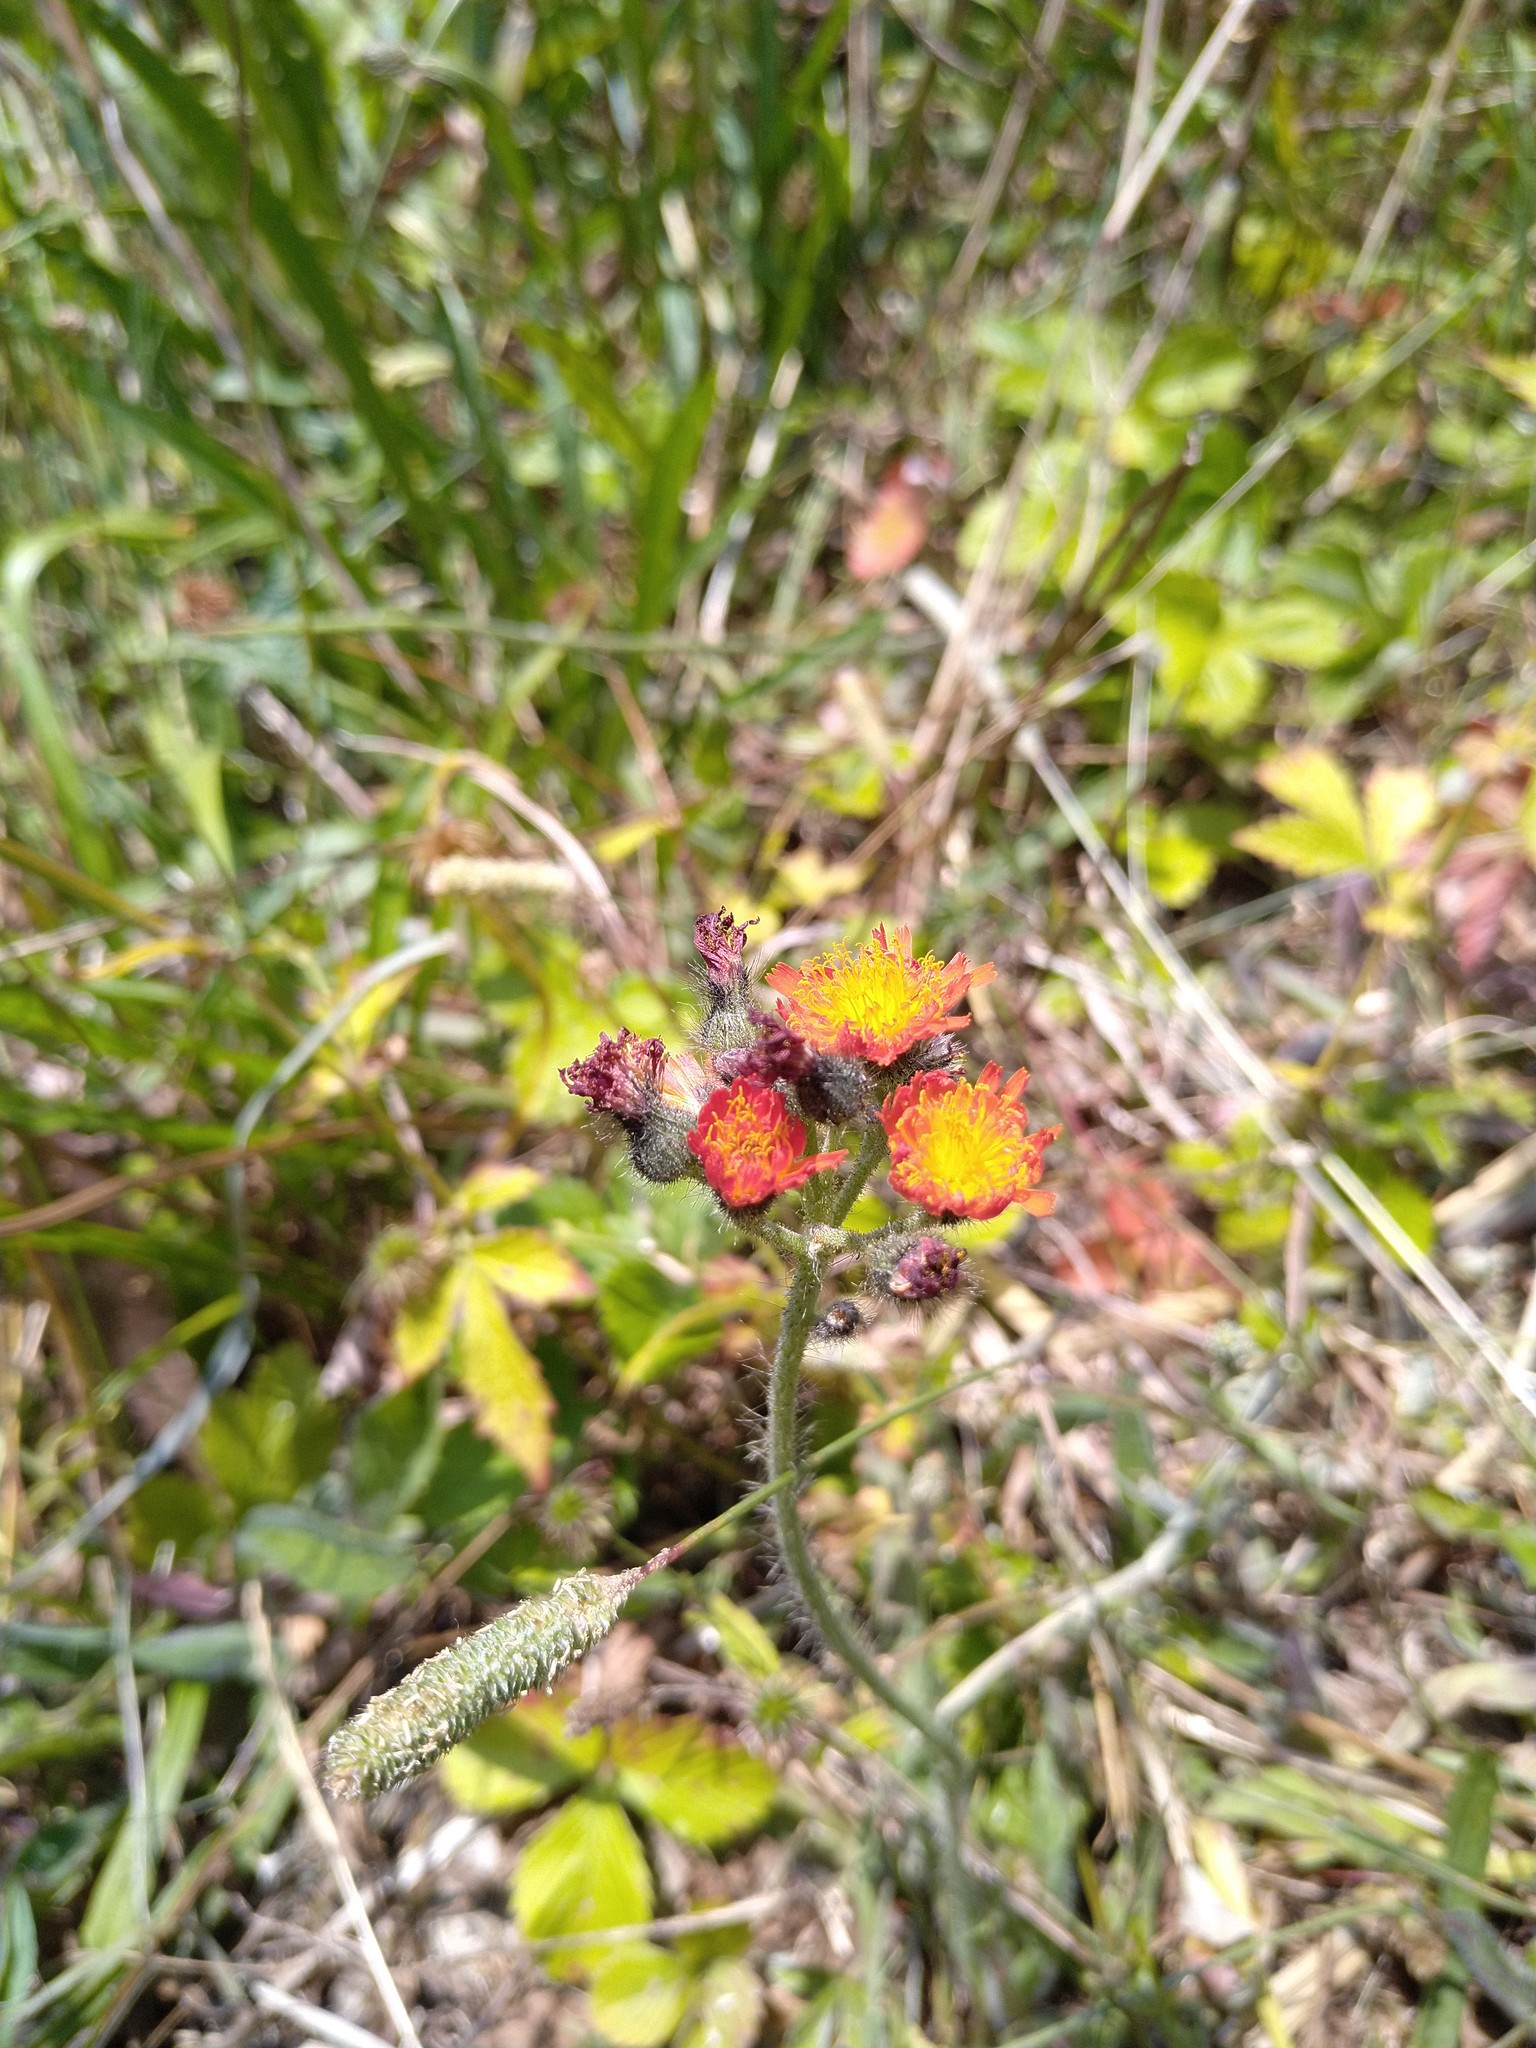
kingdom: Plantae
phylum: Tracheophyta
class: Magnoliopsida
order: Asterales
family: Asteraceae
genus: Pilosella
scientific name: Pilosella aurantiaca
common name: Fox-and-cubs
